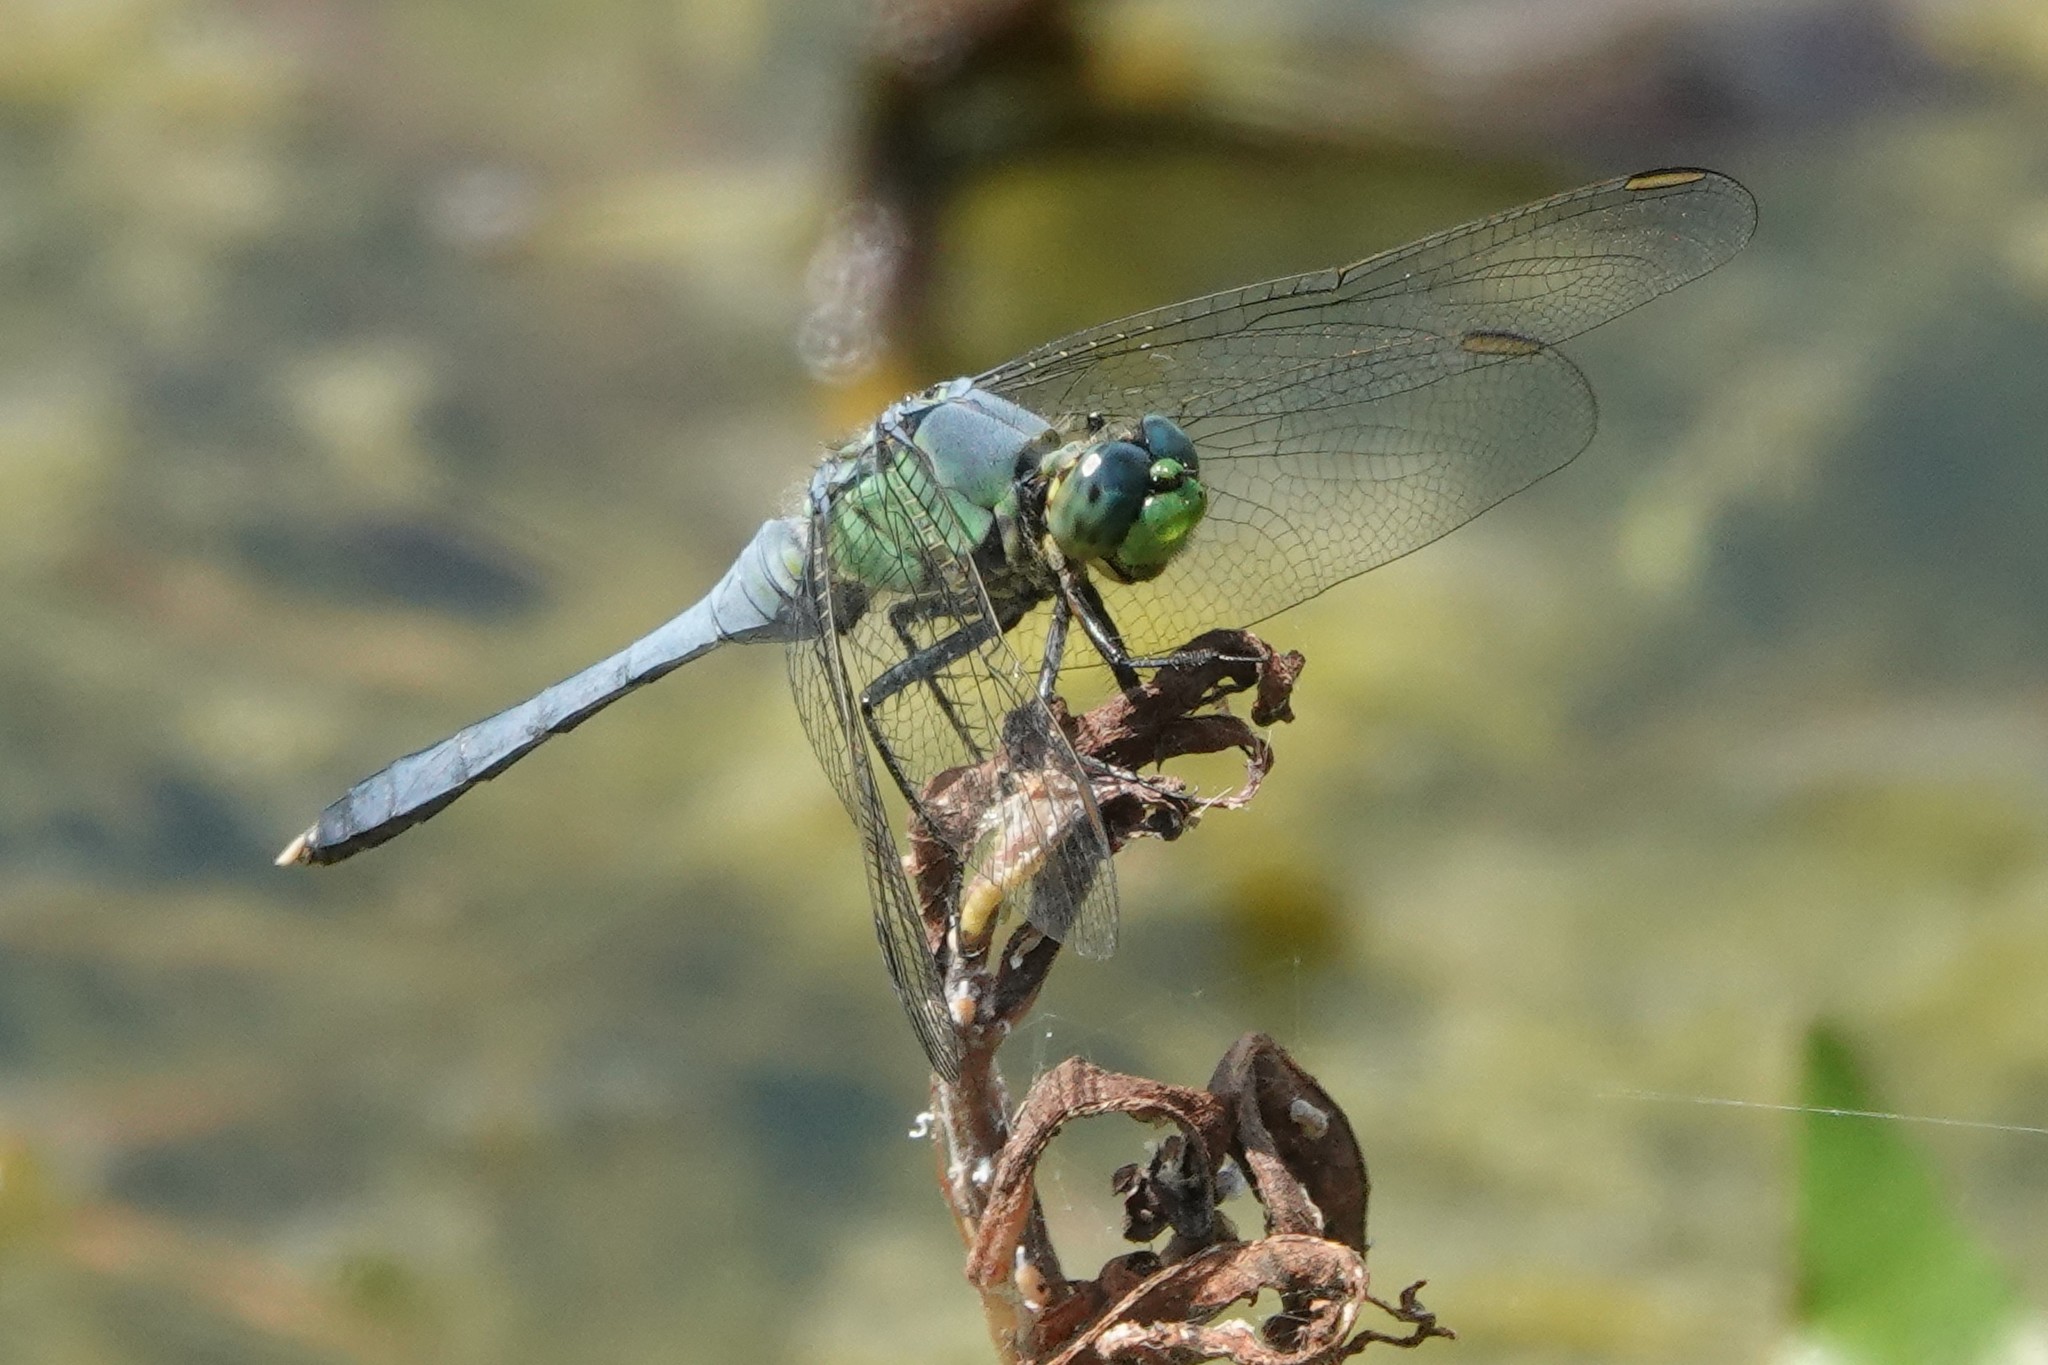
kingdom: Animalia
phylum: Arthropoda
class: Insecta
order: Odonata
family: Libellulidae
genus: Erythemis
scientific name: Erythemis simplicicollis
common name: Eastern pondhawk
